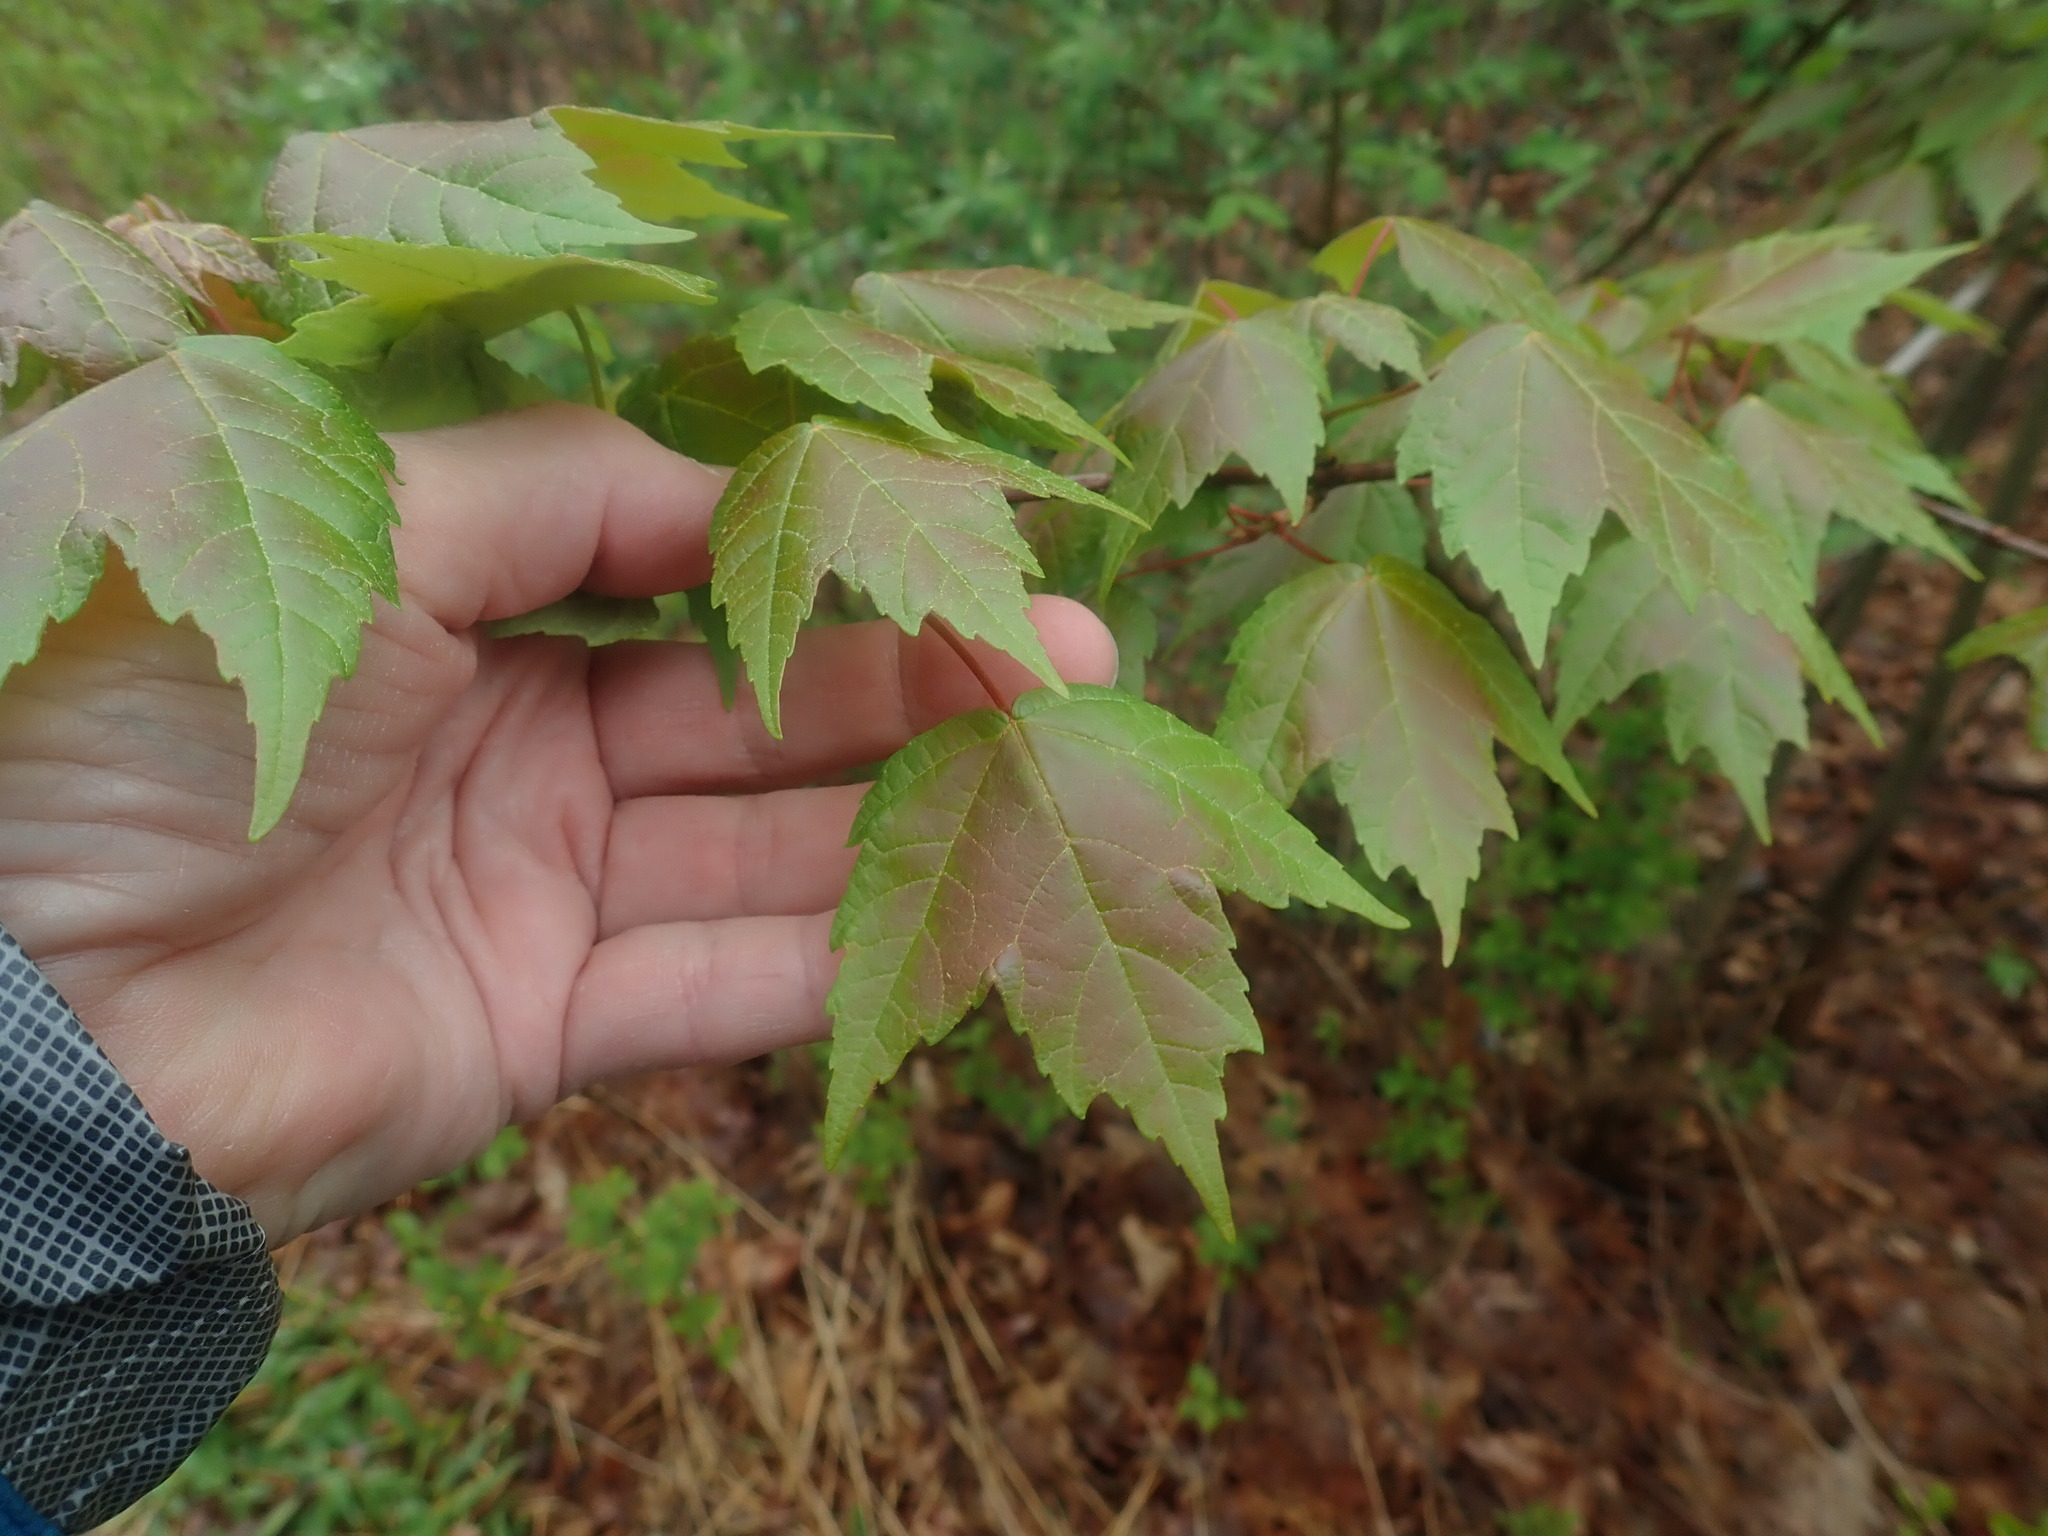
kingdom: Plantae
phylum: Tracheophyta
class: Magnoliopsida
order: Sapindales
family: Sapindaceae
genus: Acer
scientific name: Acer rubrum
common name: Red maple
